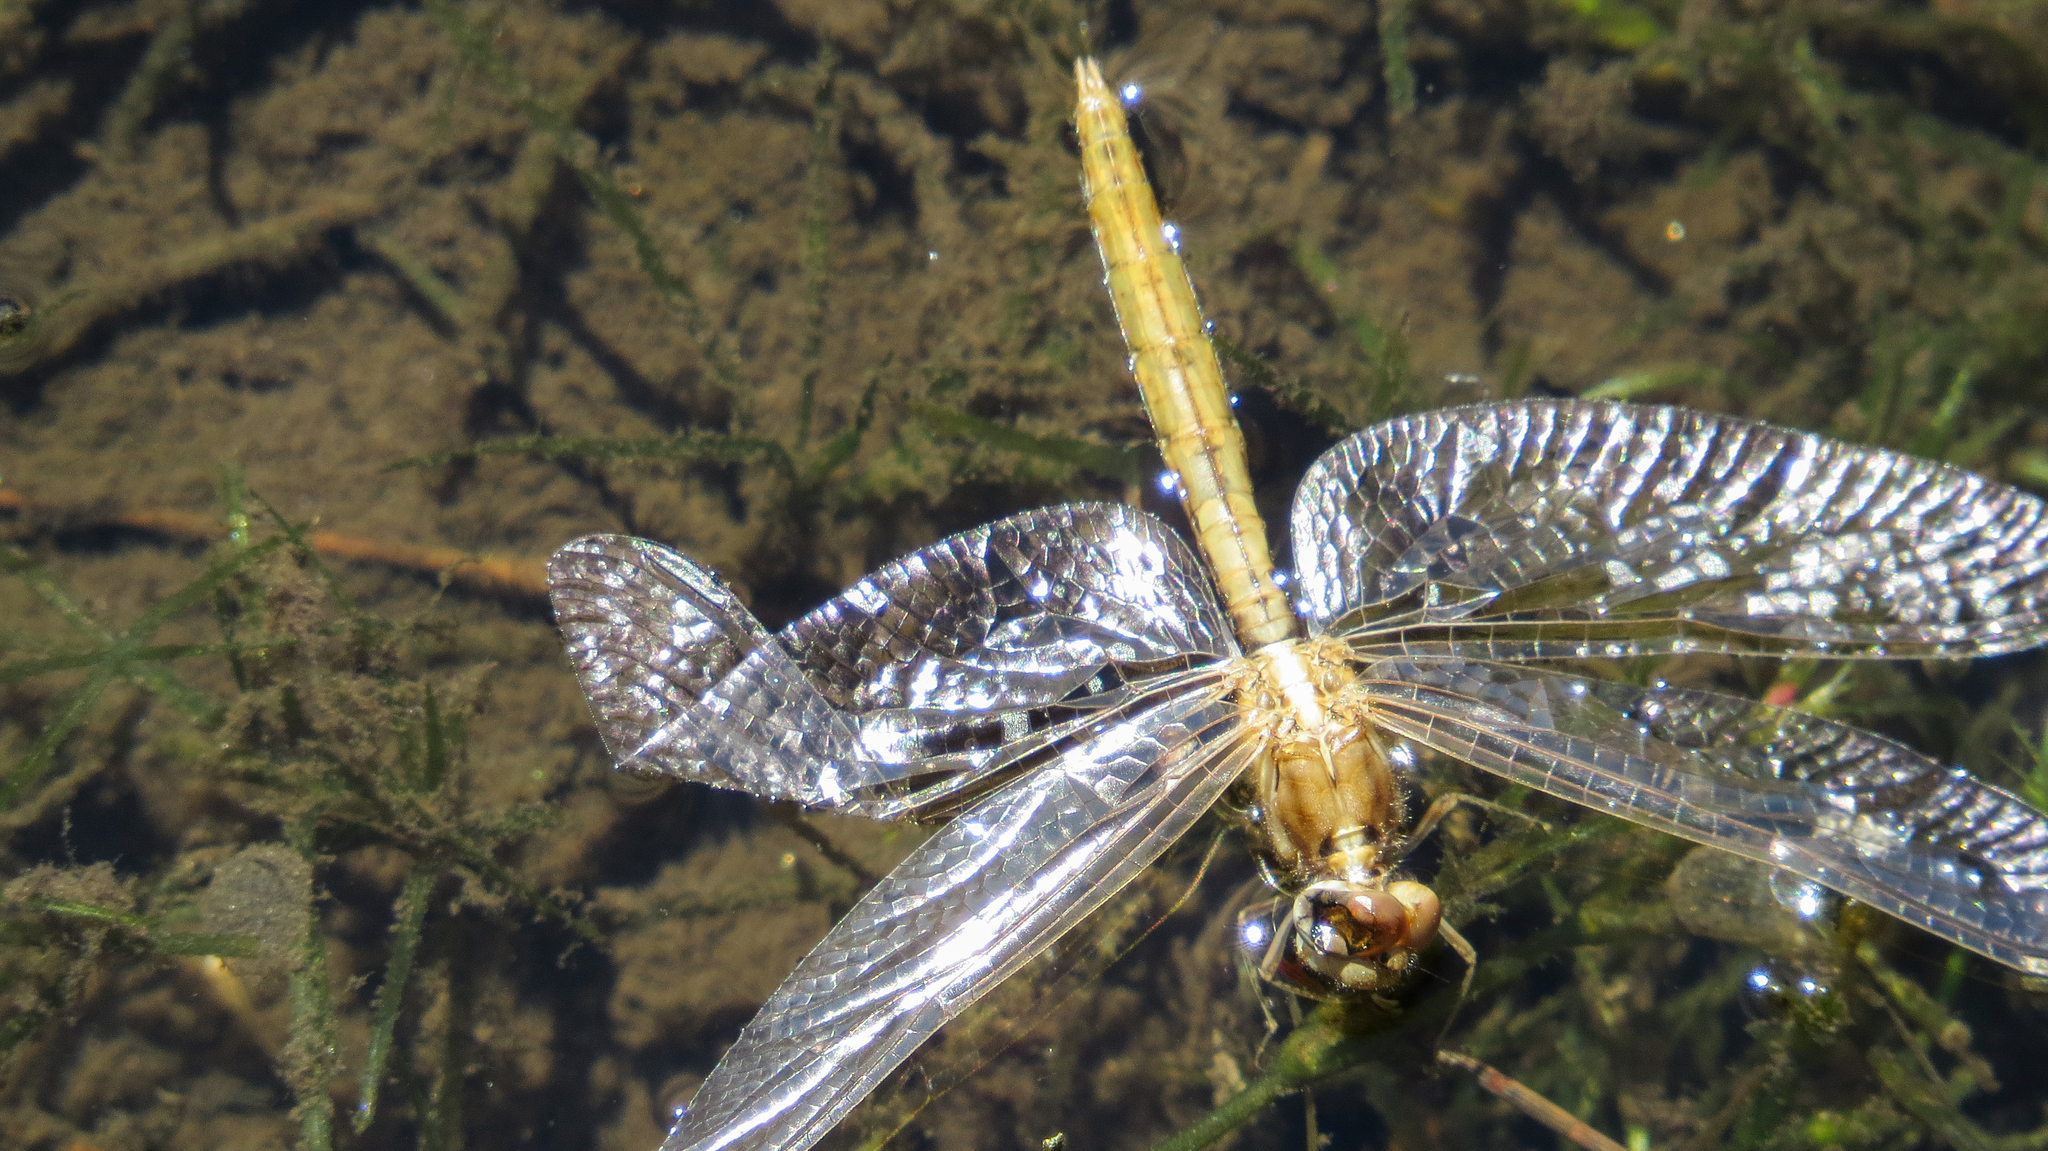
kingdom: Animalia
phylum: Arthropoda
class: Insecta
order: Odonata
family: Libellulidae
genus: Diplacodes
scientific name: Diplacodes haematodes
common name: Scarlet percher
